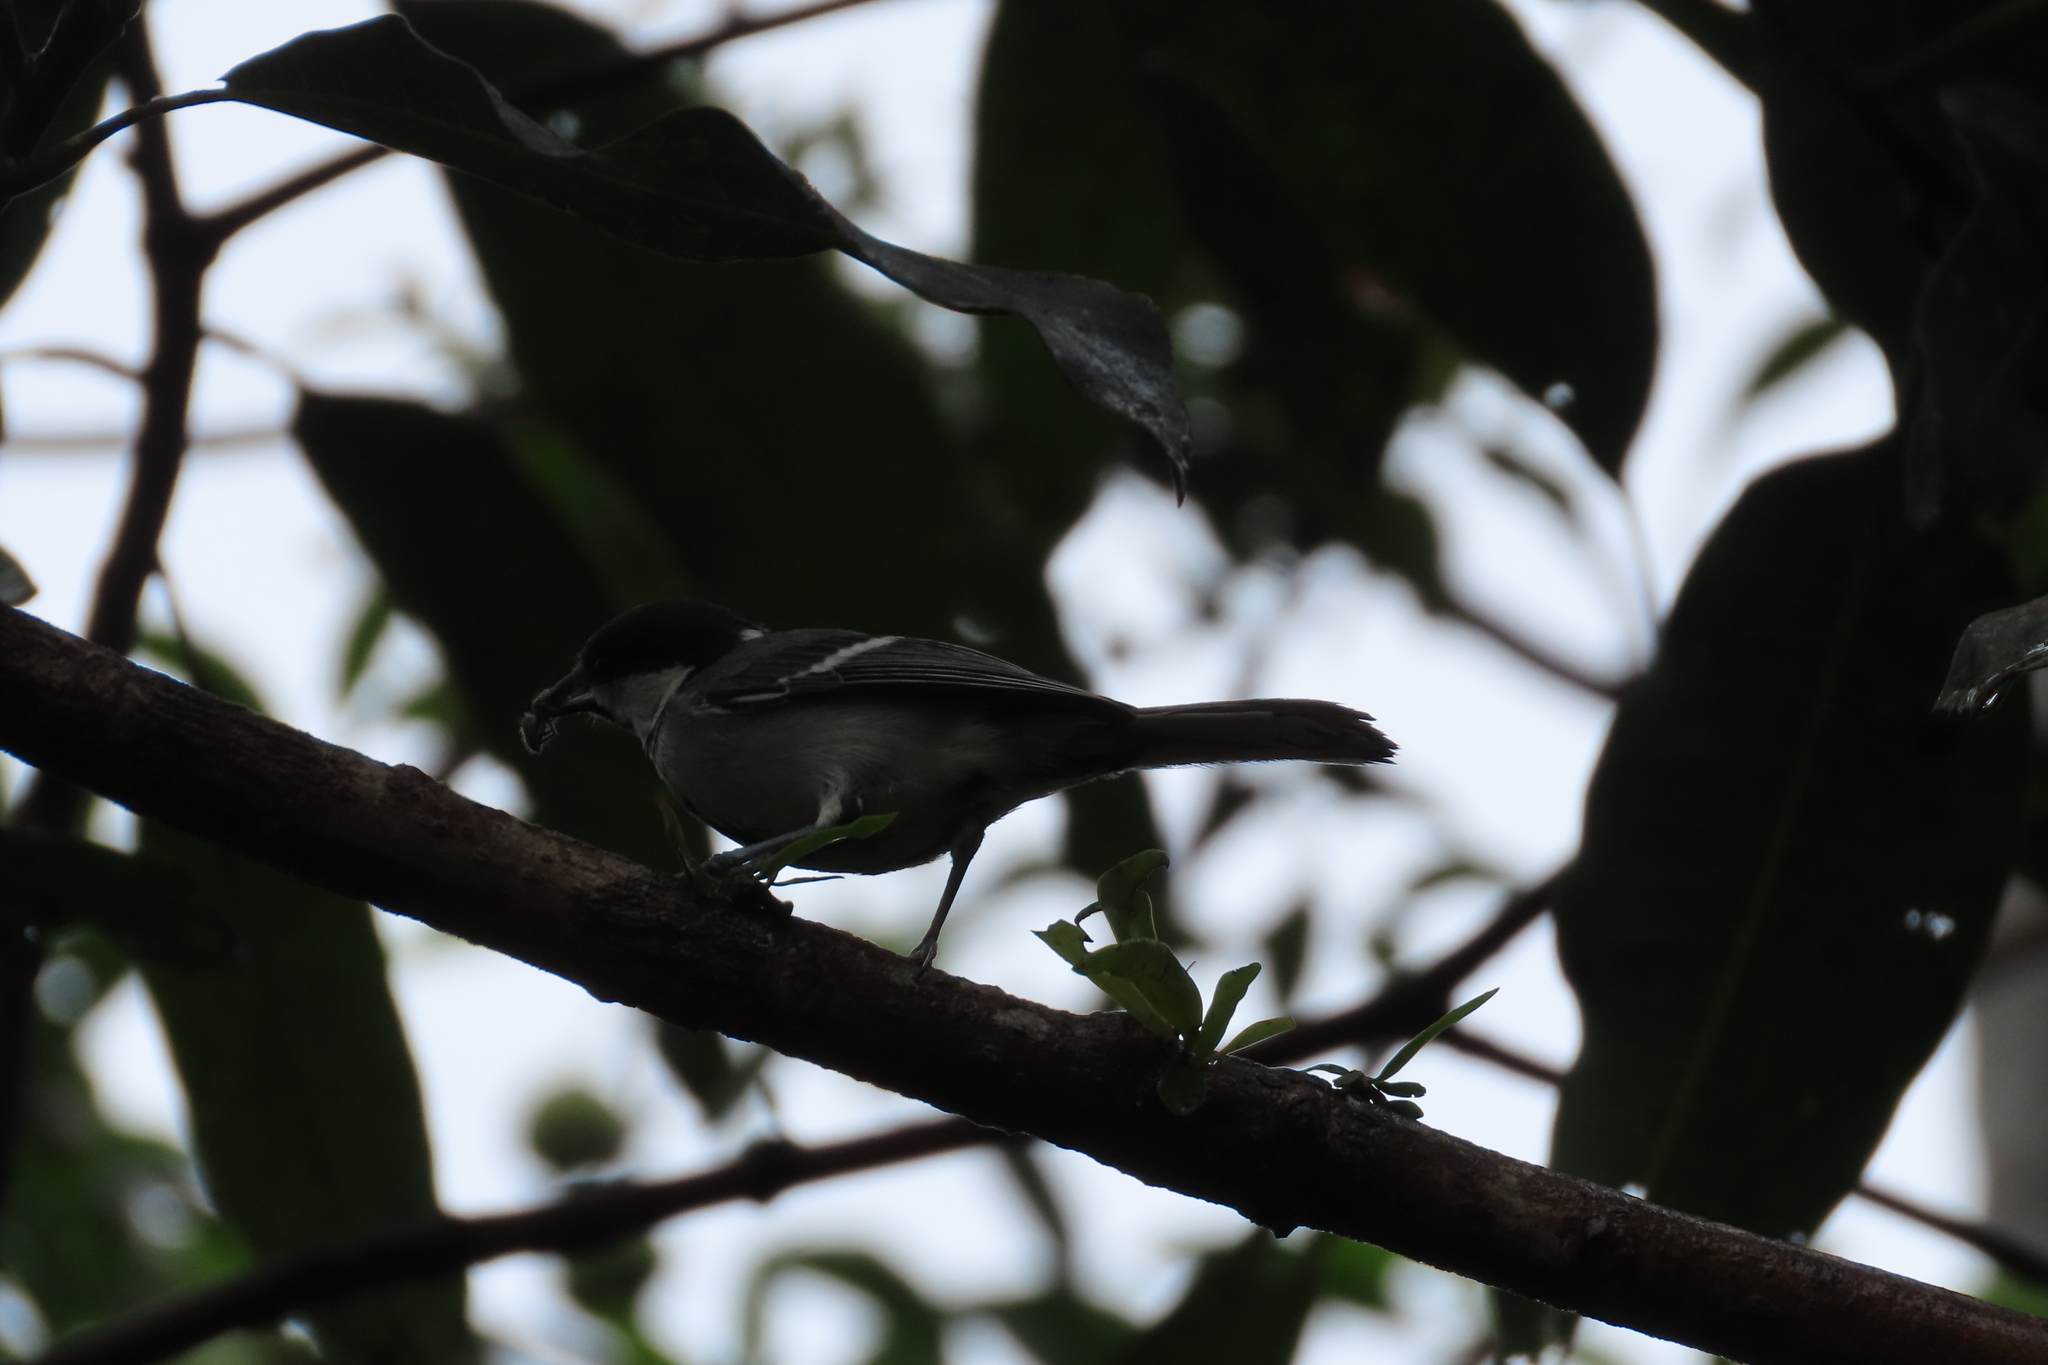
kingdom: Animalia
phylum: Chordata
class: Aves
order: Passeriformes
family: Paridae
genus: Parus
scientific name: Parus cinereus
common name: Cinereous tit
